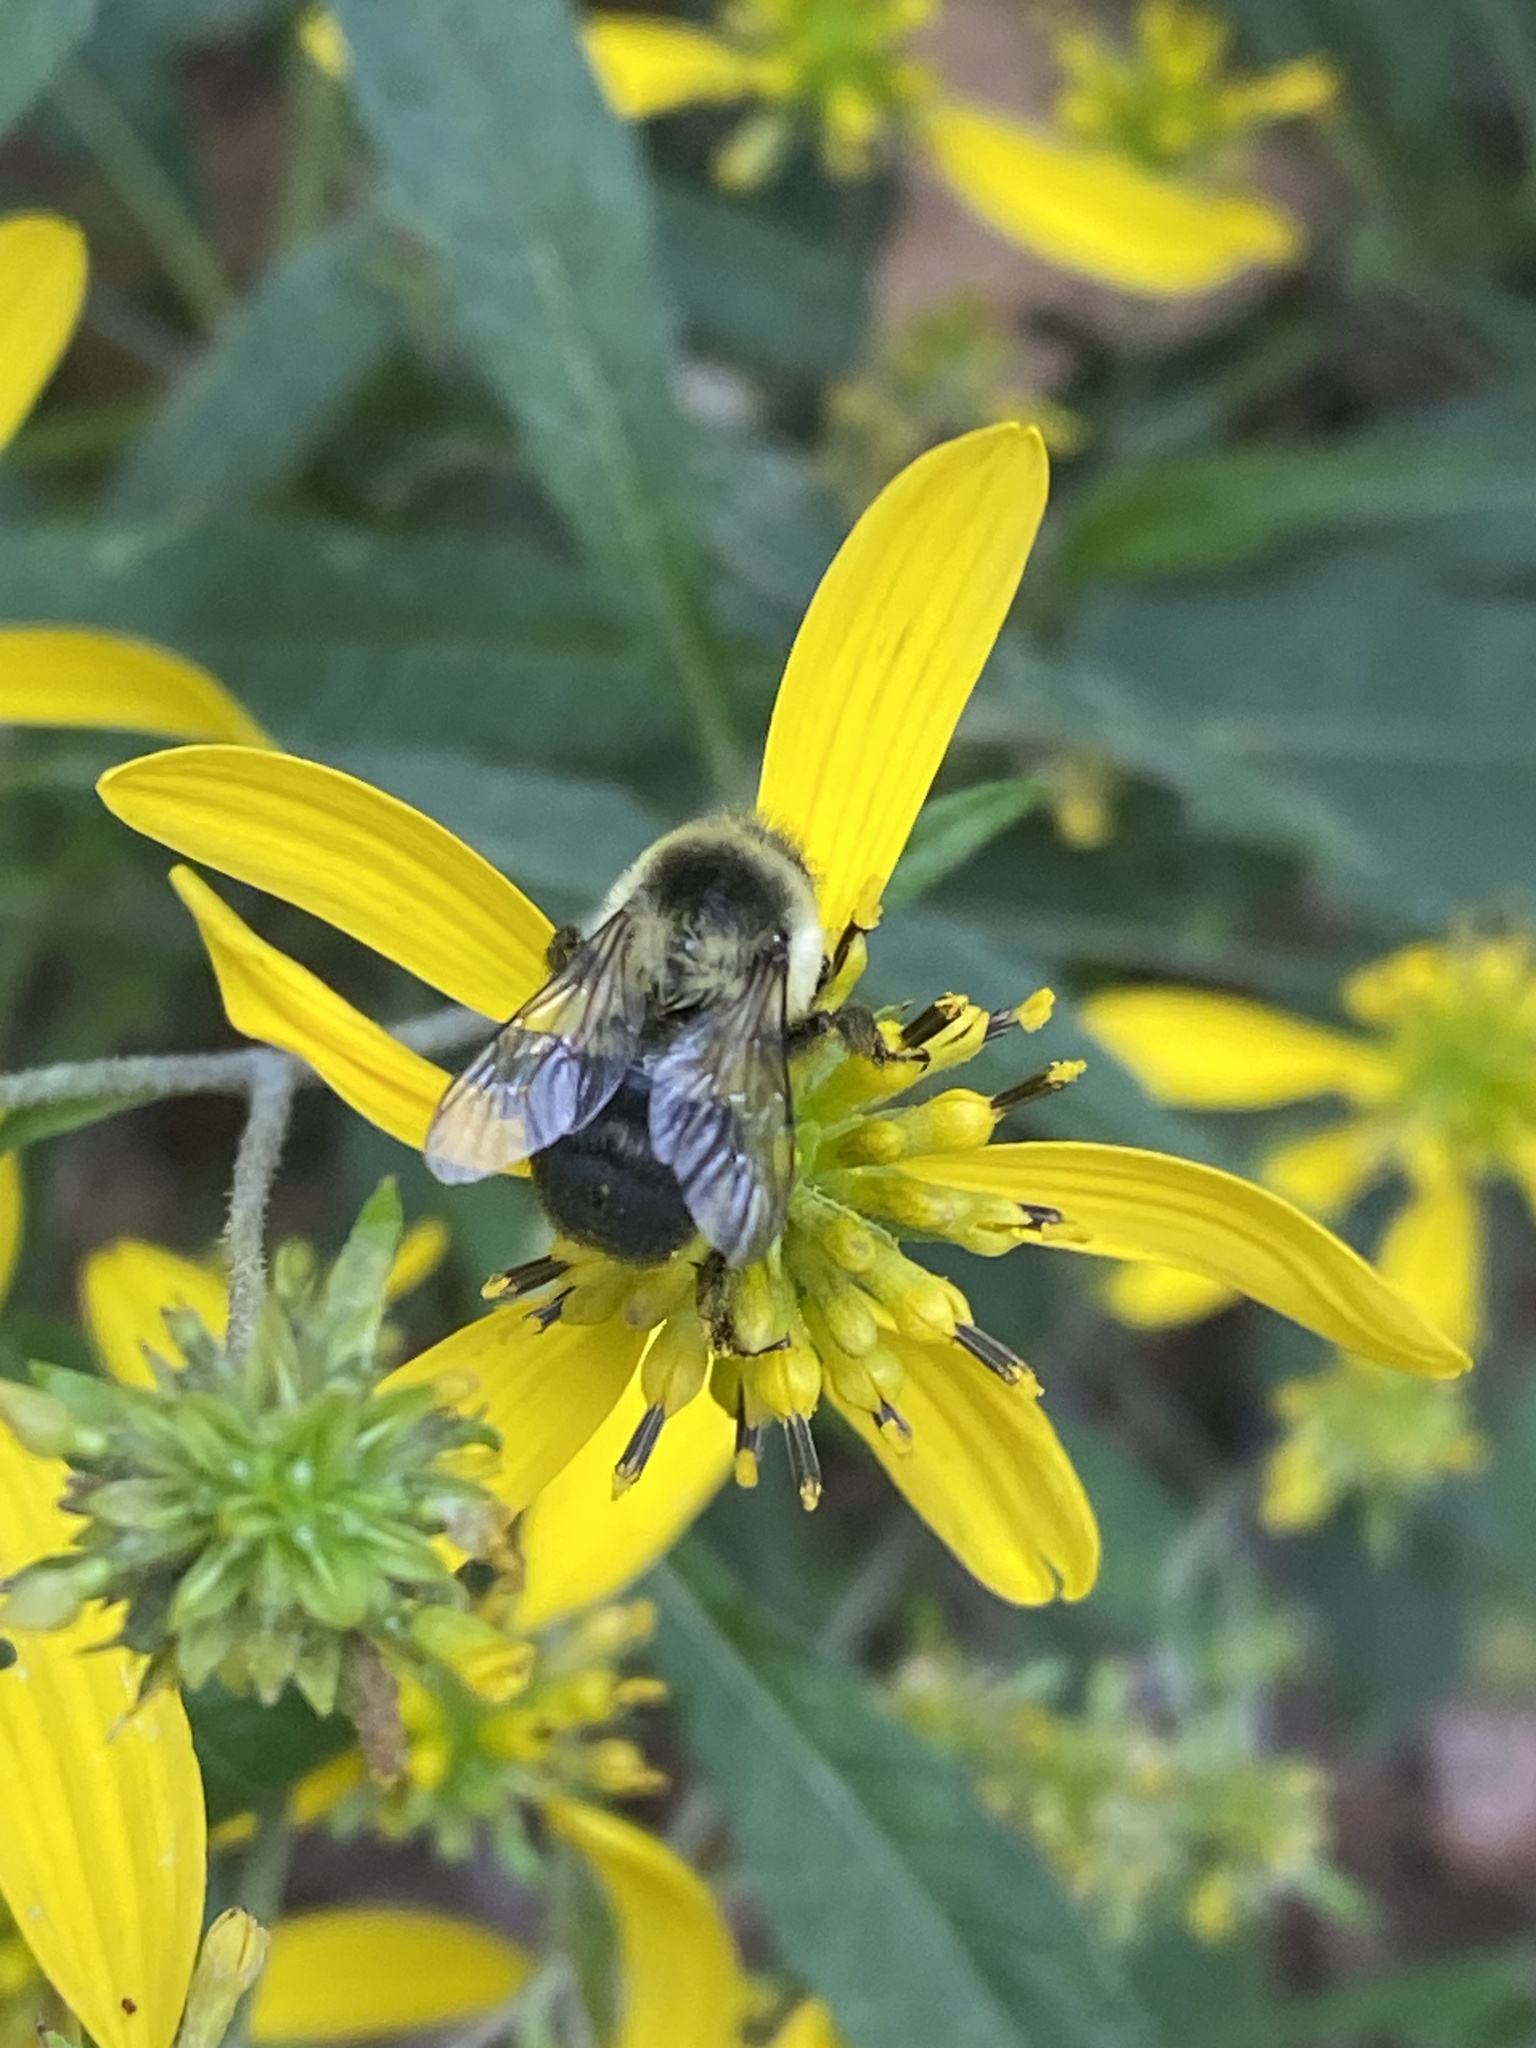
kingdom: Animalia
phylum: Arthropoda
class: Insecta
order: Hymenoptera
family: Apidae
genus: Bombus
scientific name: Bombus impatiens
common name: Common eastern bumble bee
